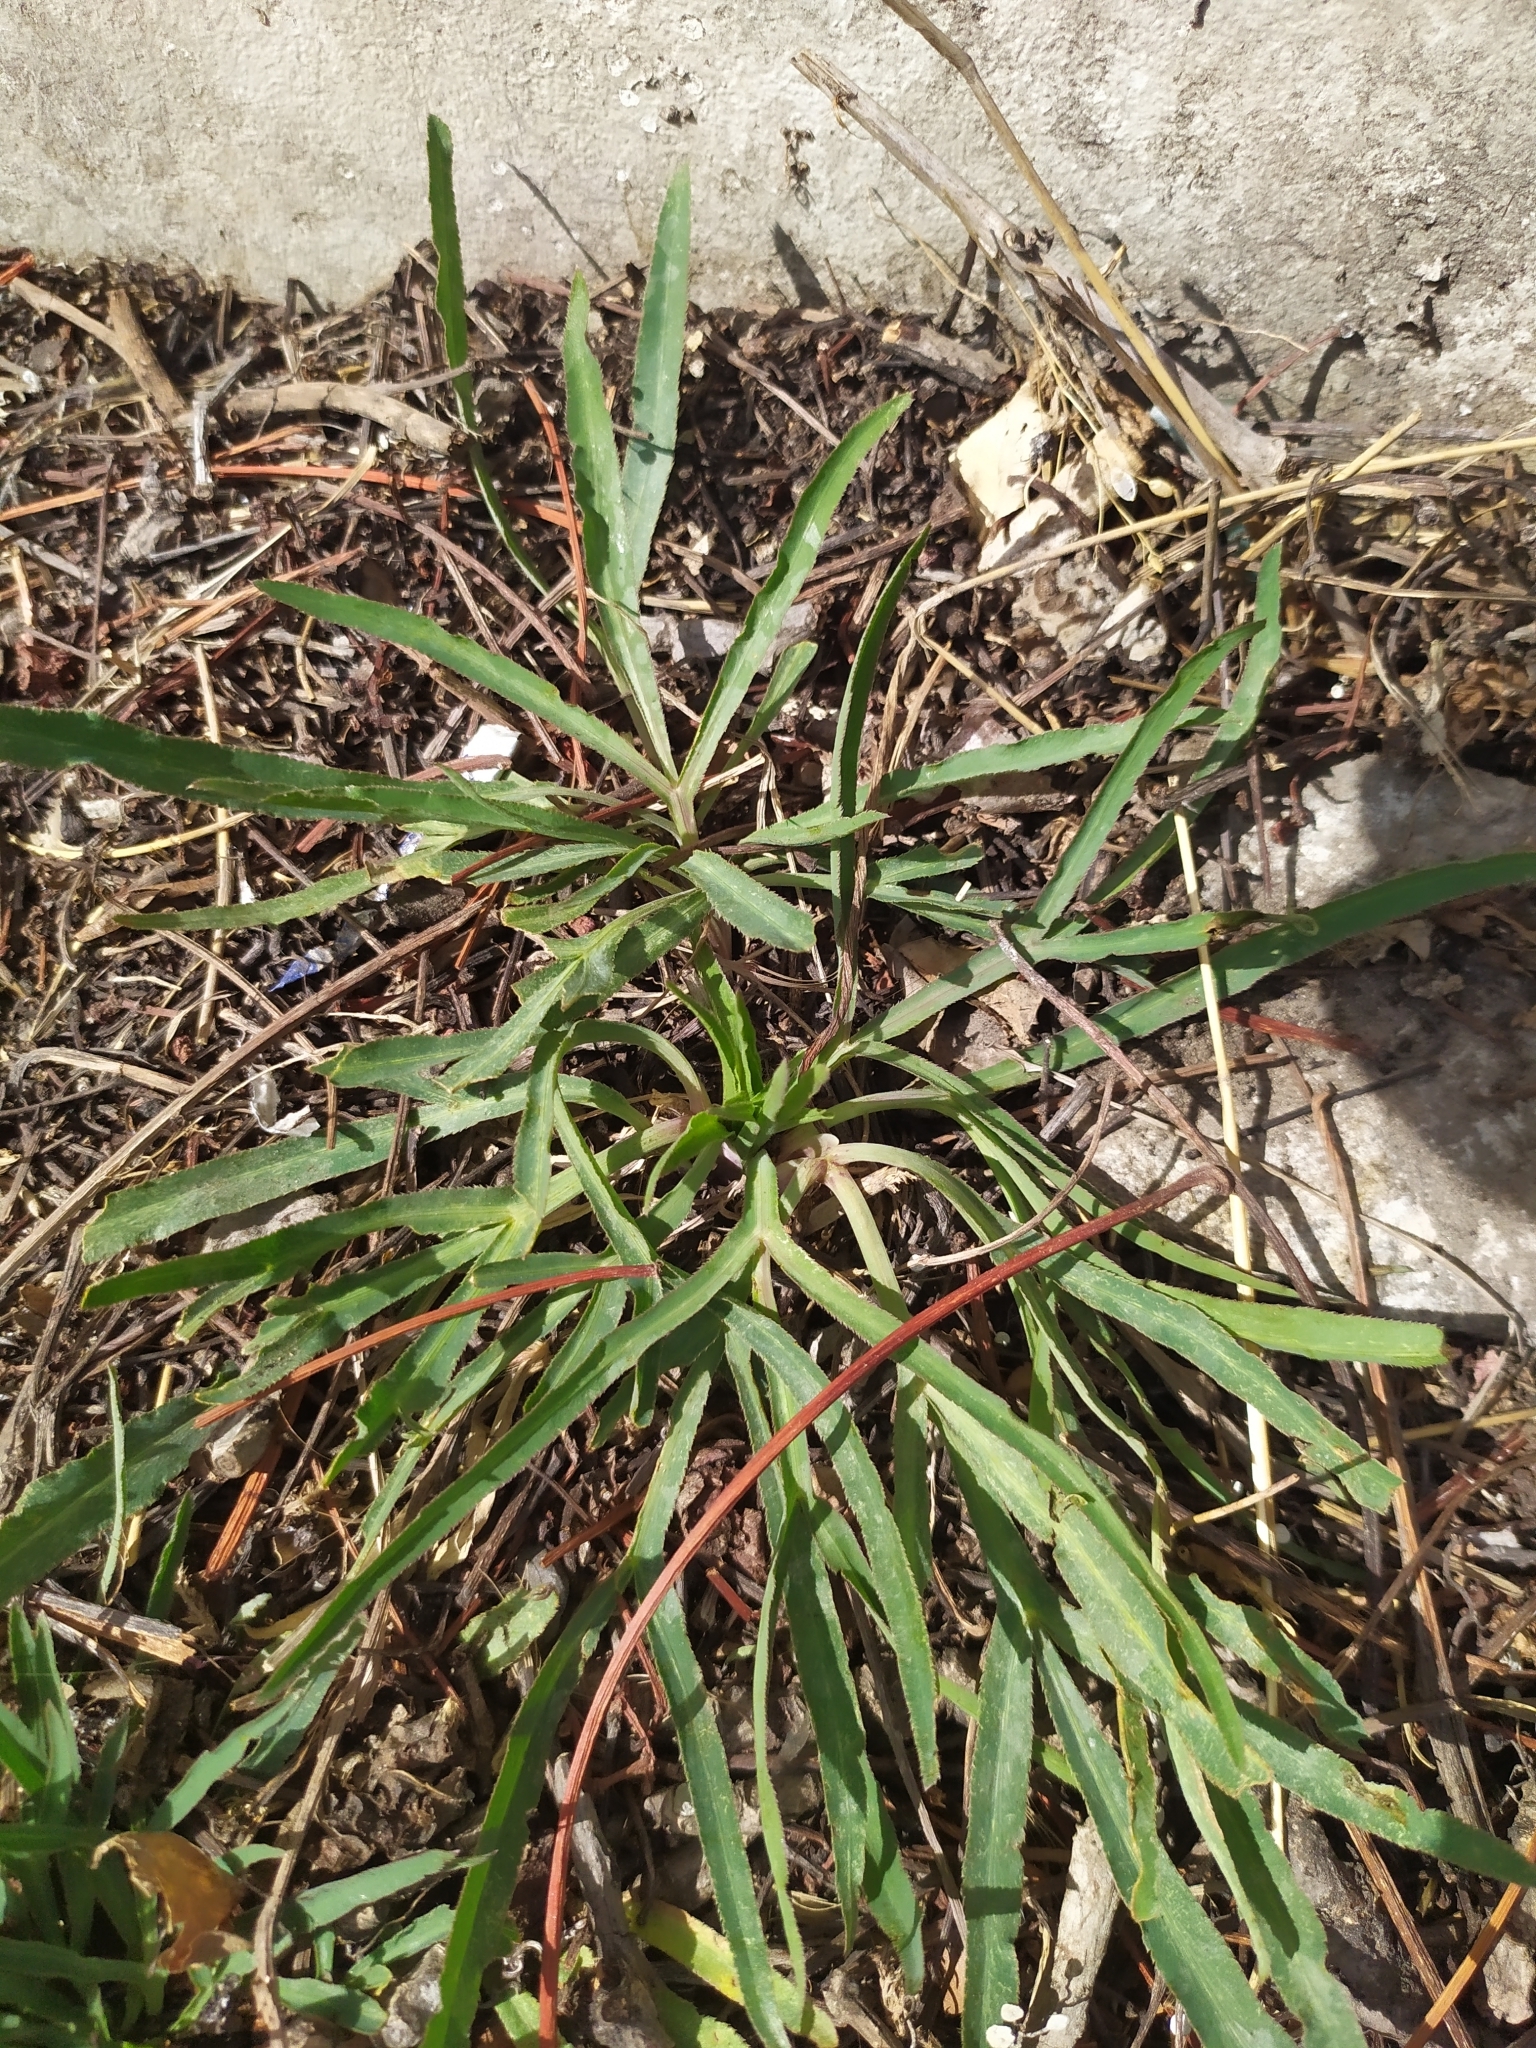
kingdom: Plantae
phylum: Tracheophyta
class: Magnoliopsida
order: Apiales
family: Apiaceae
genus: Falcaria
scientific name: Falcaria vulgaris
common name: Longleaf
